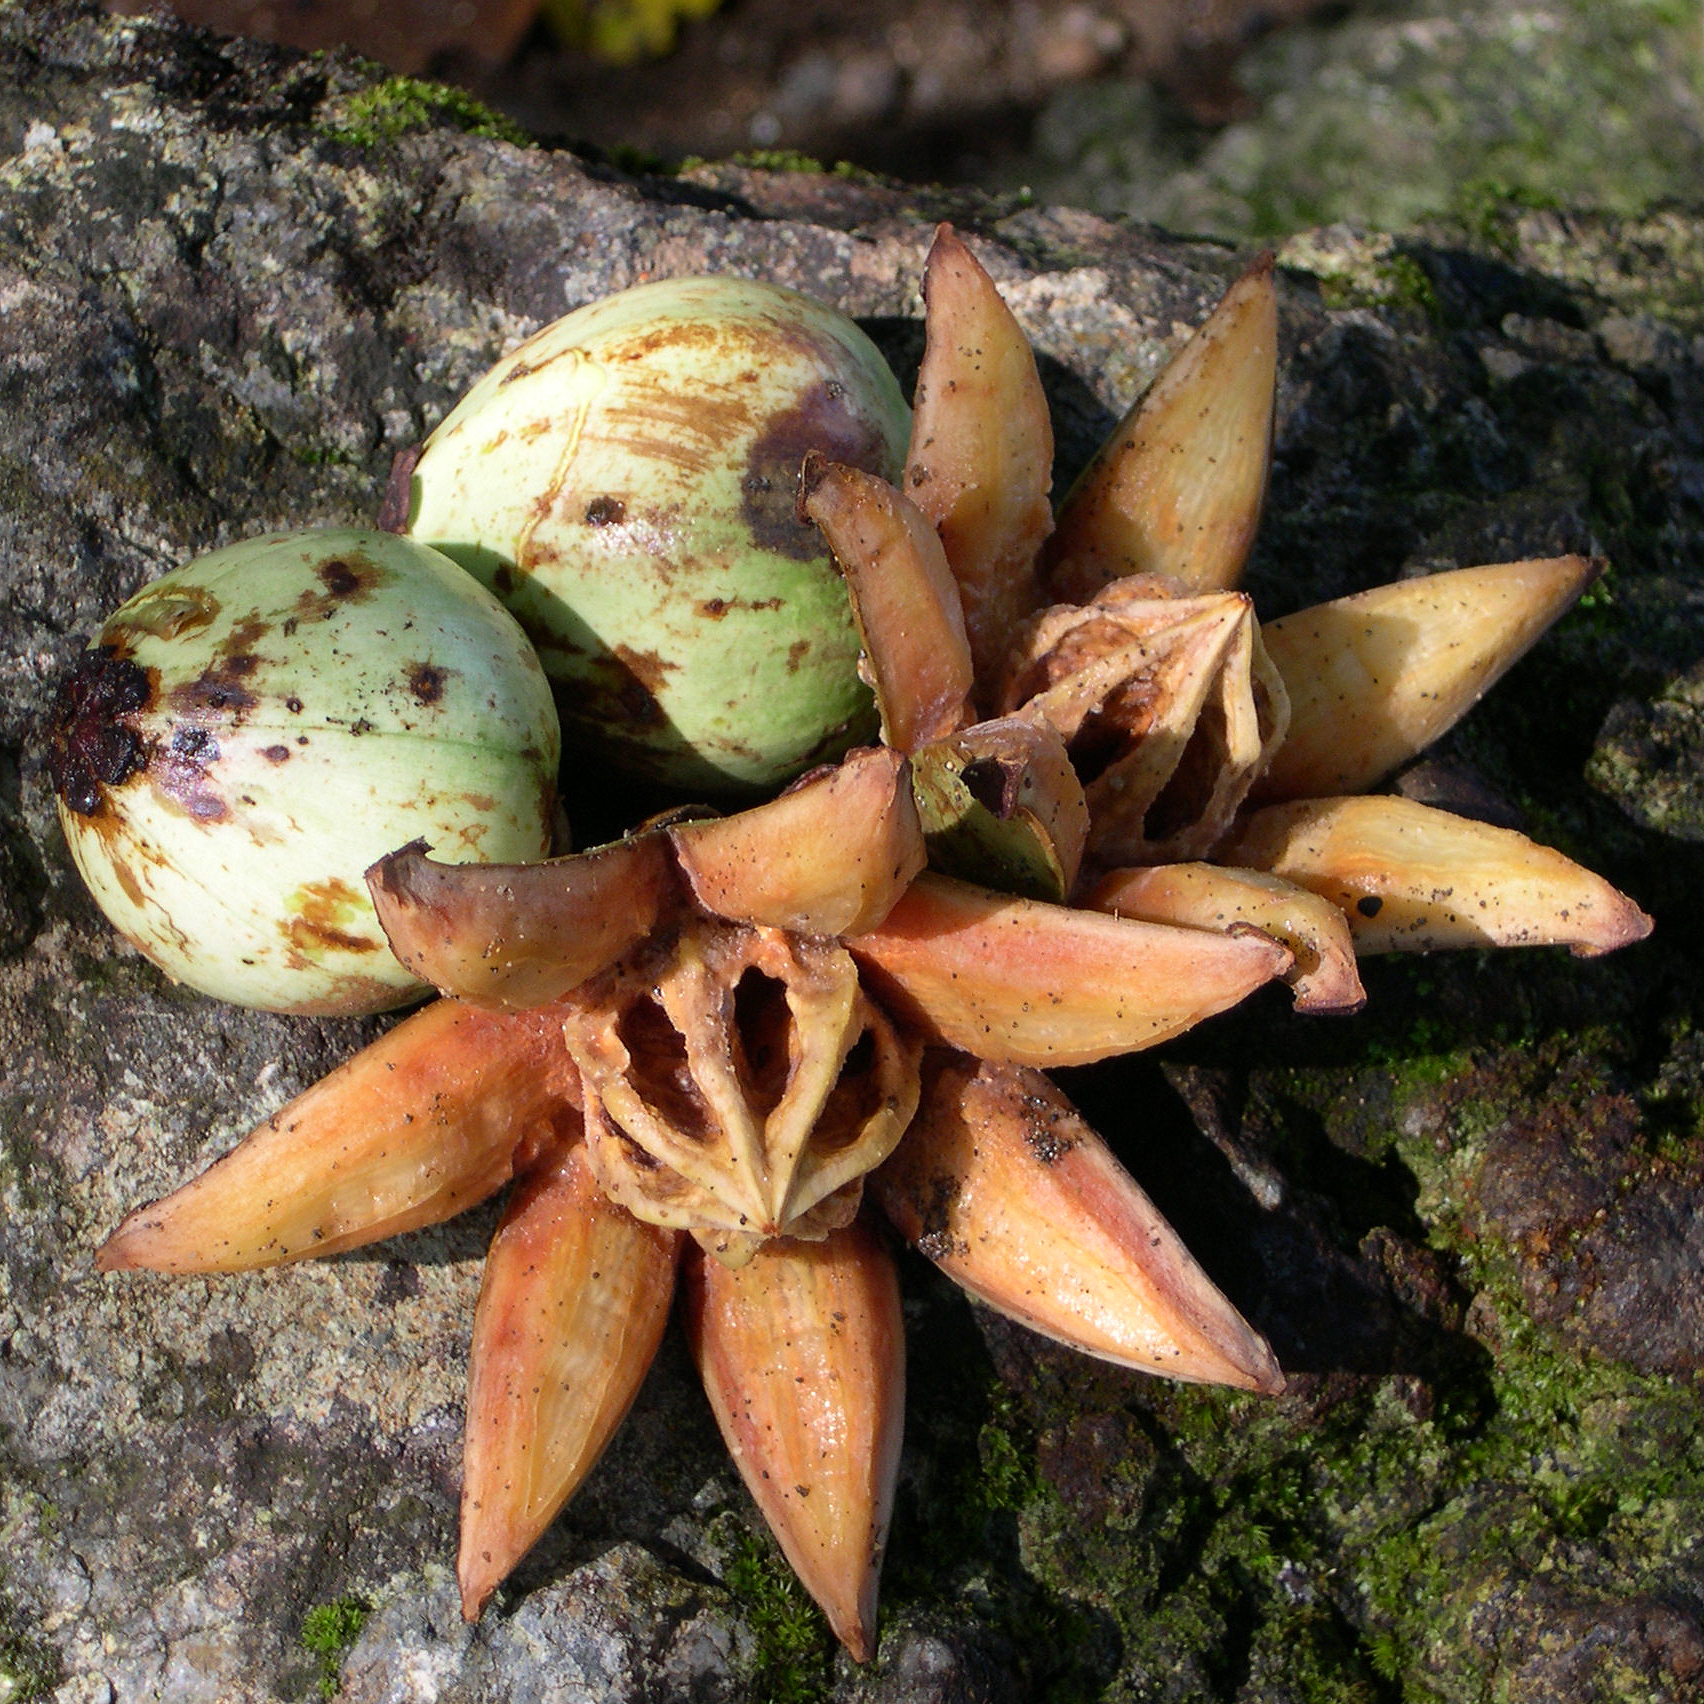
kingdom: Plantae
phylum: Tracheophyta
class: Magnoliopsida
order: Malpighiales
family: Clusiaceae
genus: Clusia
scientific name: Clusia rosea
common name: Scotch attorney
